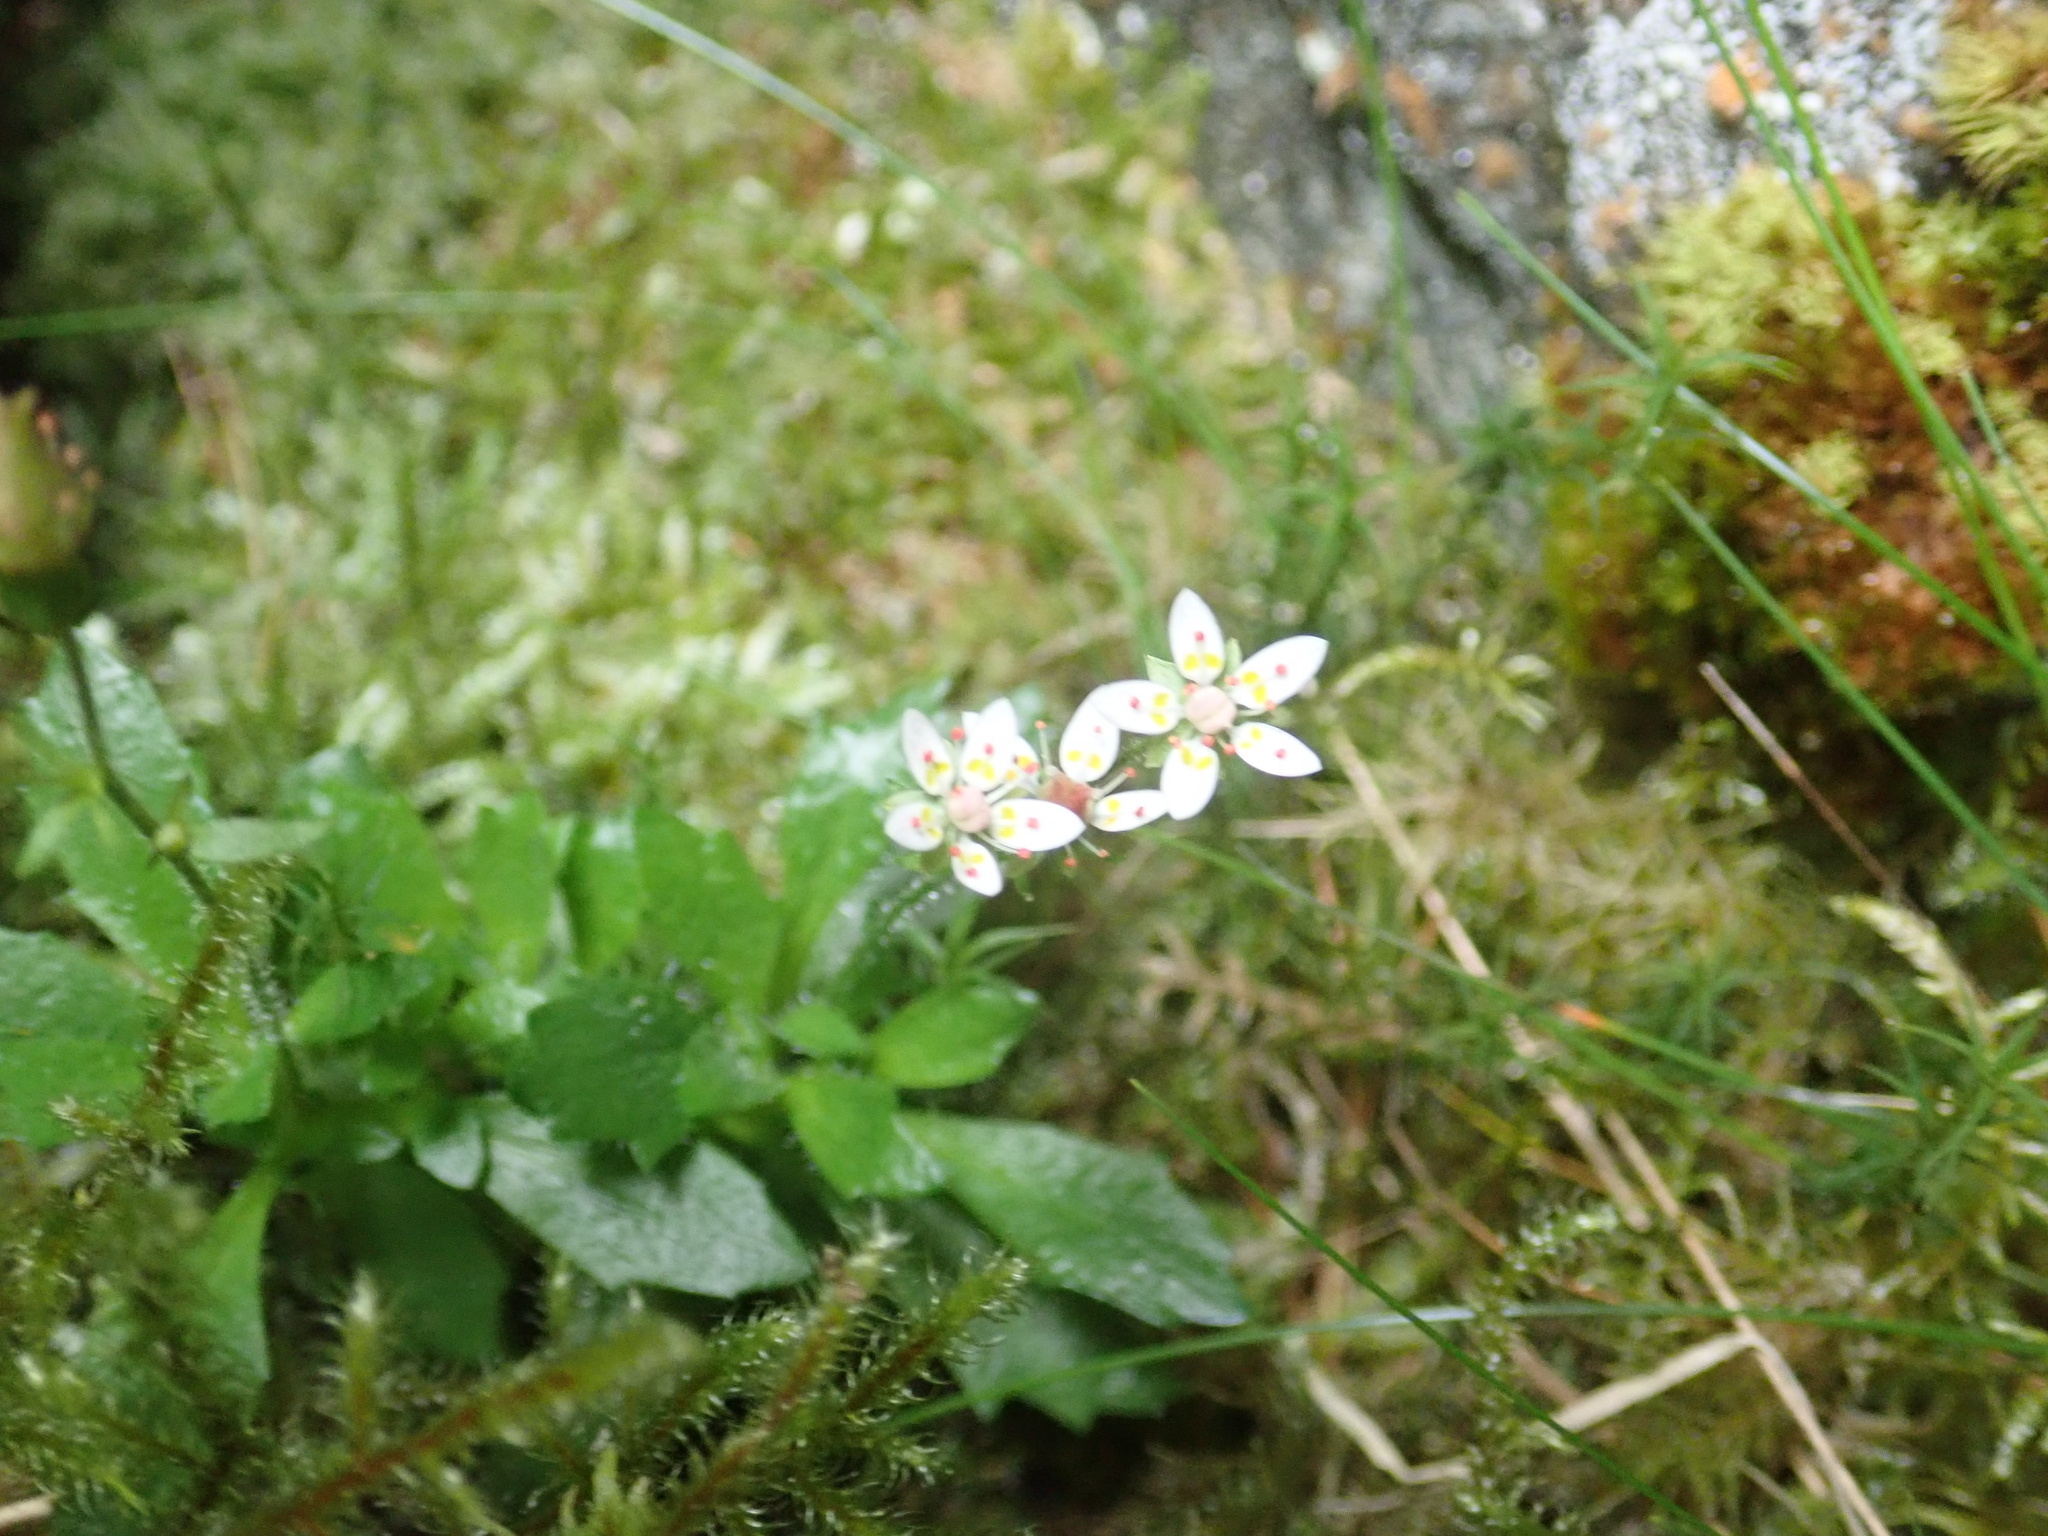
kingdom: Plantae
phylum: Tracheophyta
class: Magnoliopsida
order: Saxifragales
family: Saxifragaceae
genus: Micranthes
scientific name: Micranthes stellaris
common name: Starry saxifrage
